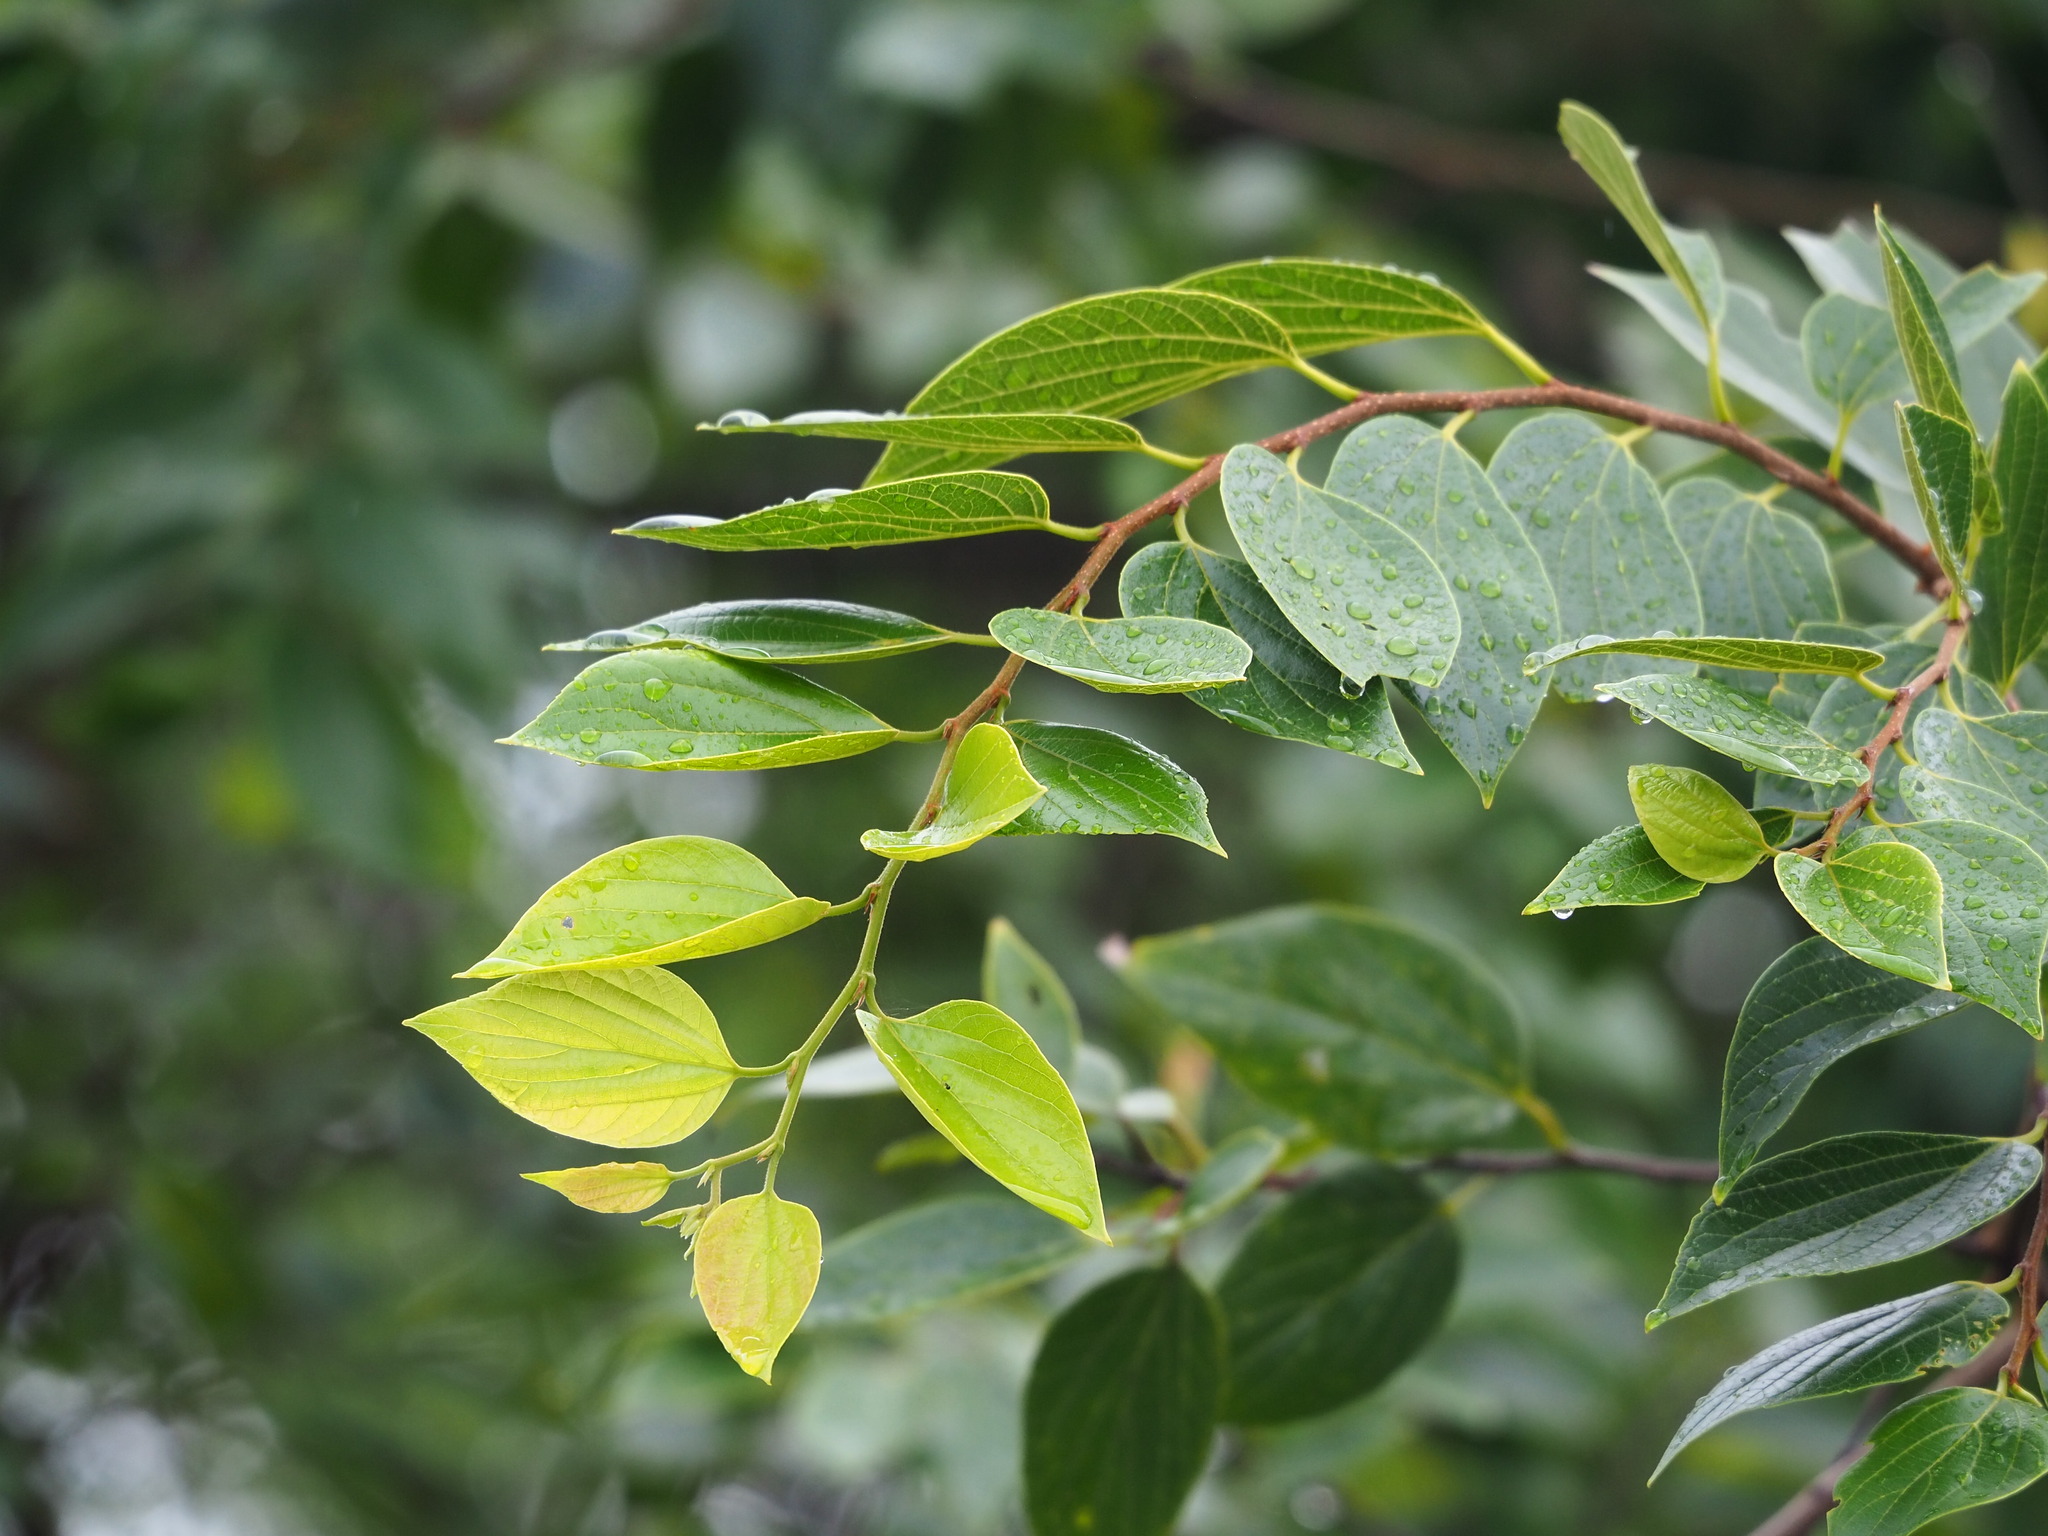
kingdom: Plantae
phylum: Tracheophyta
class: Magnoliopsida
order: Rosales
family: Cannabaceae
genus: Celtis
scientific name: Celtis sinensis
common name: Chinese hackberry
